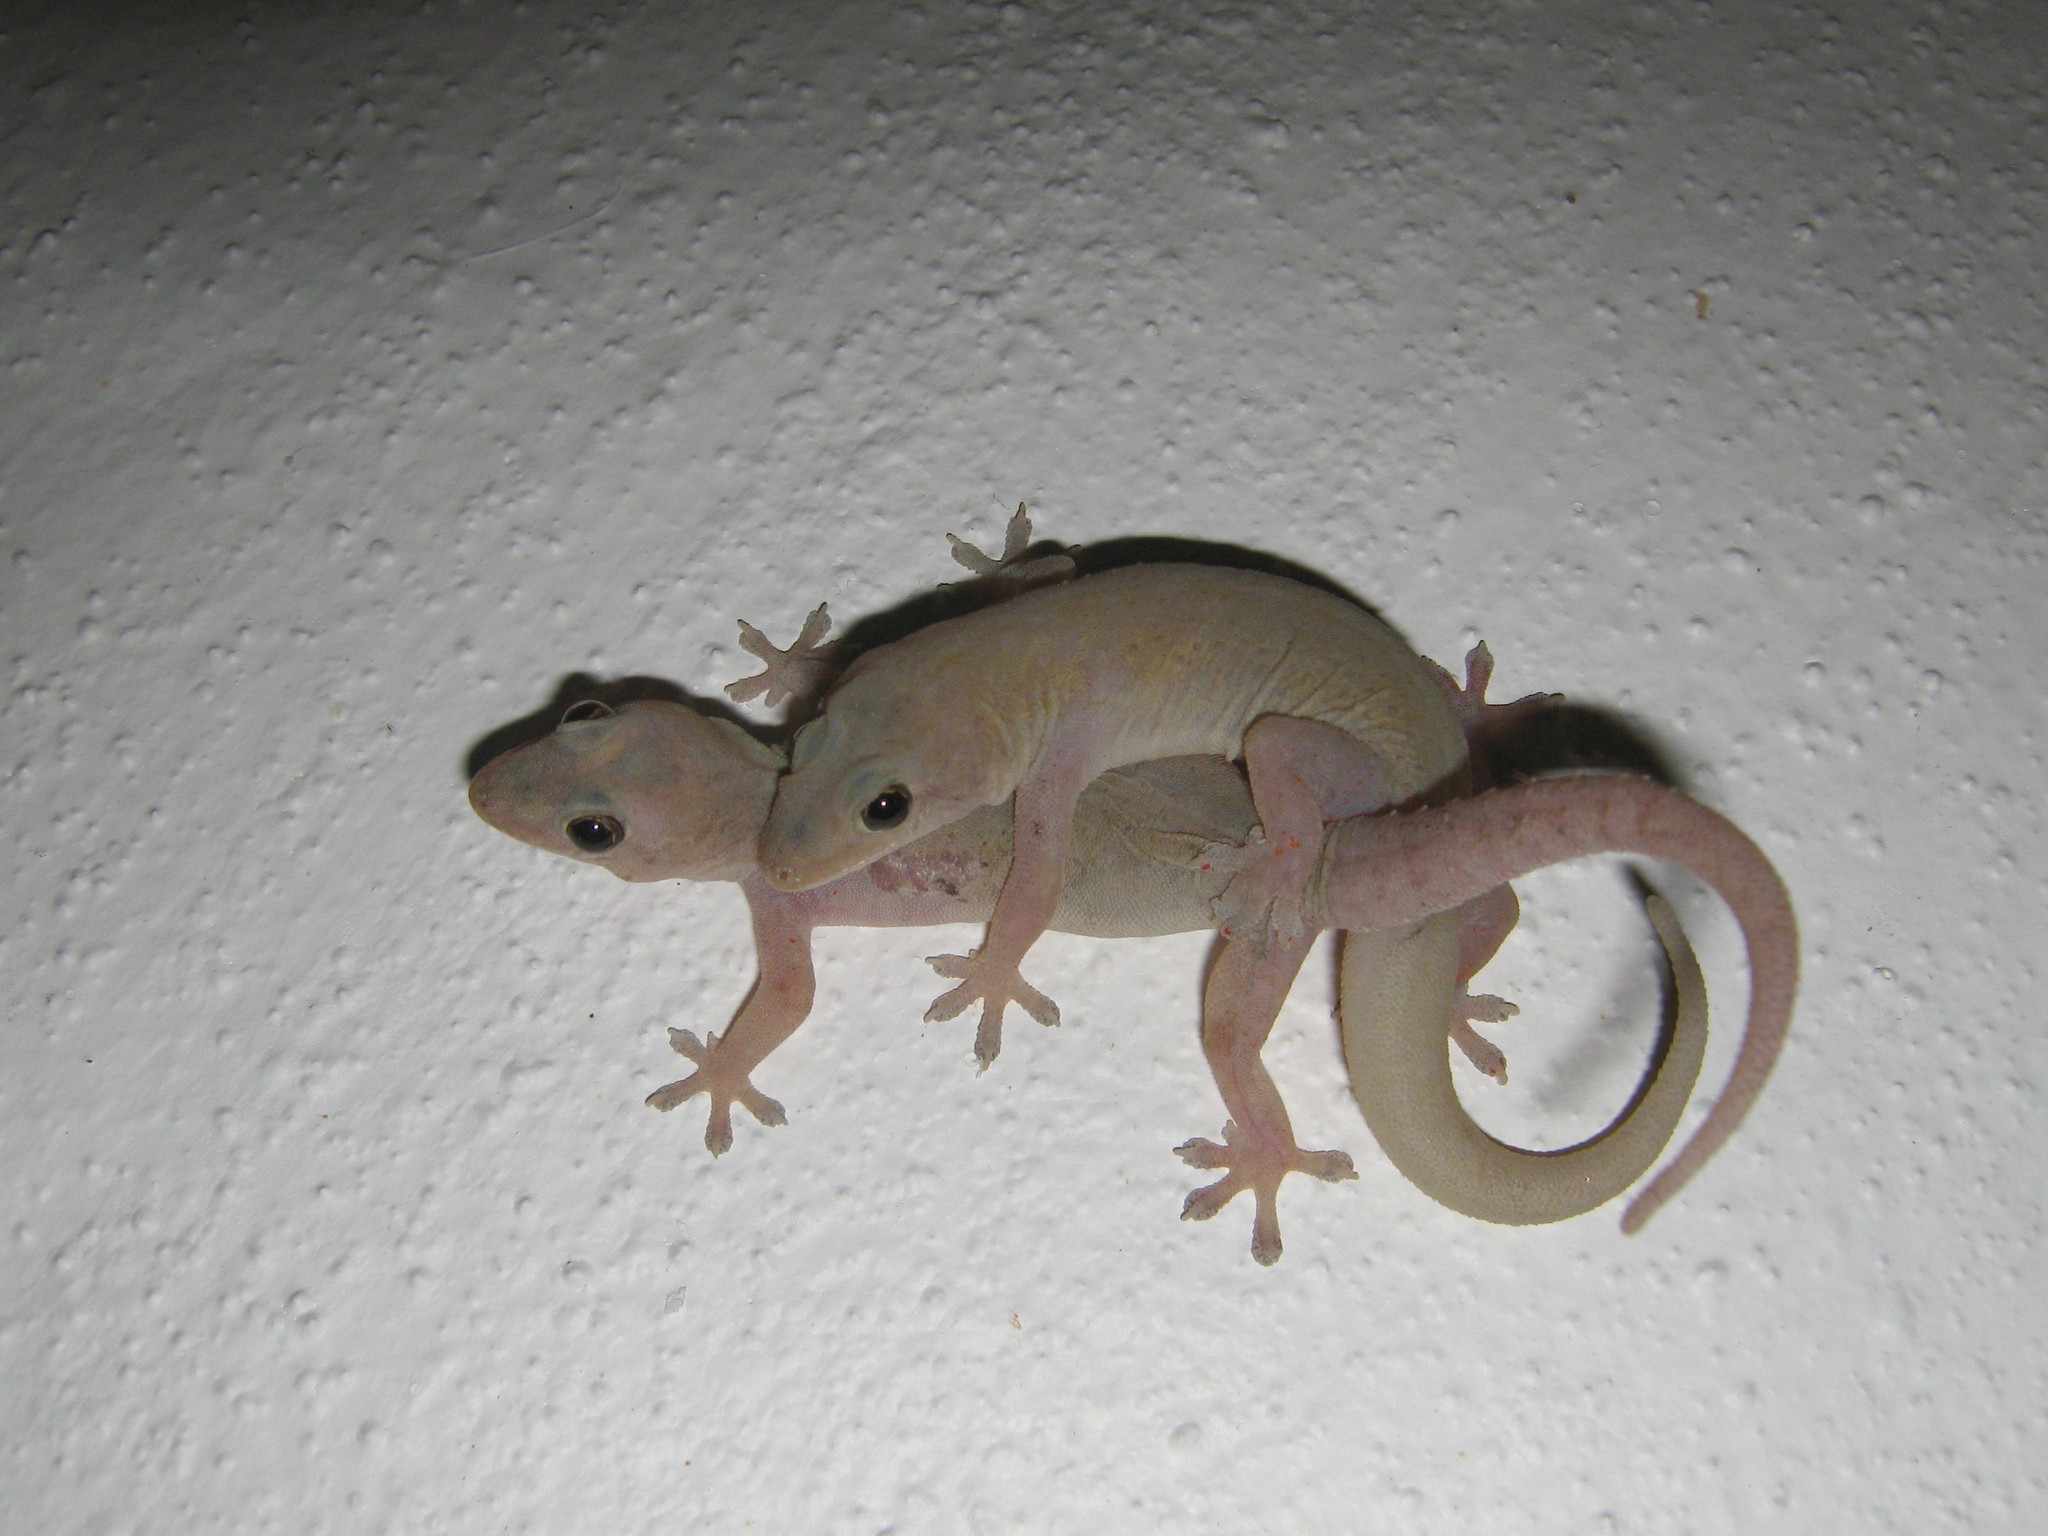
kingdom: Animalia
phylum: Chordata
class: Squamata
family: Gekkonidae
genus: Hemidactylus
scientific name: Hemidactylus frenatus
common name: Common house gecko
